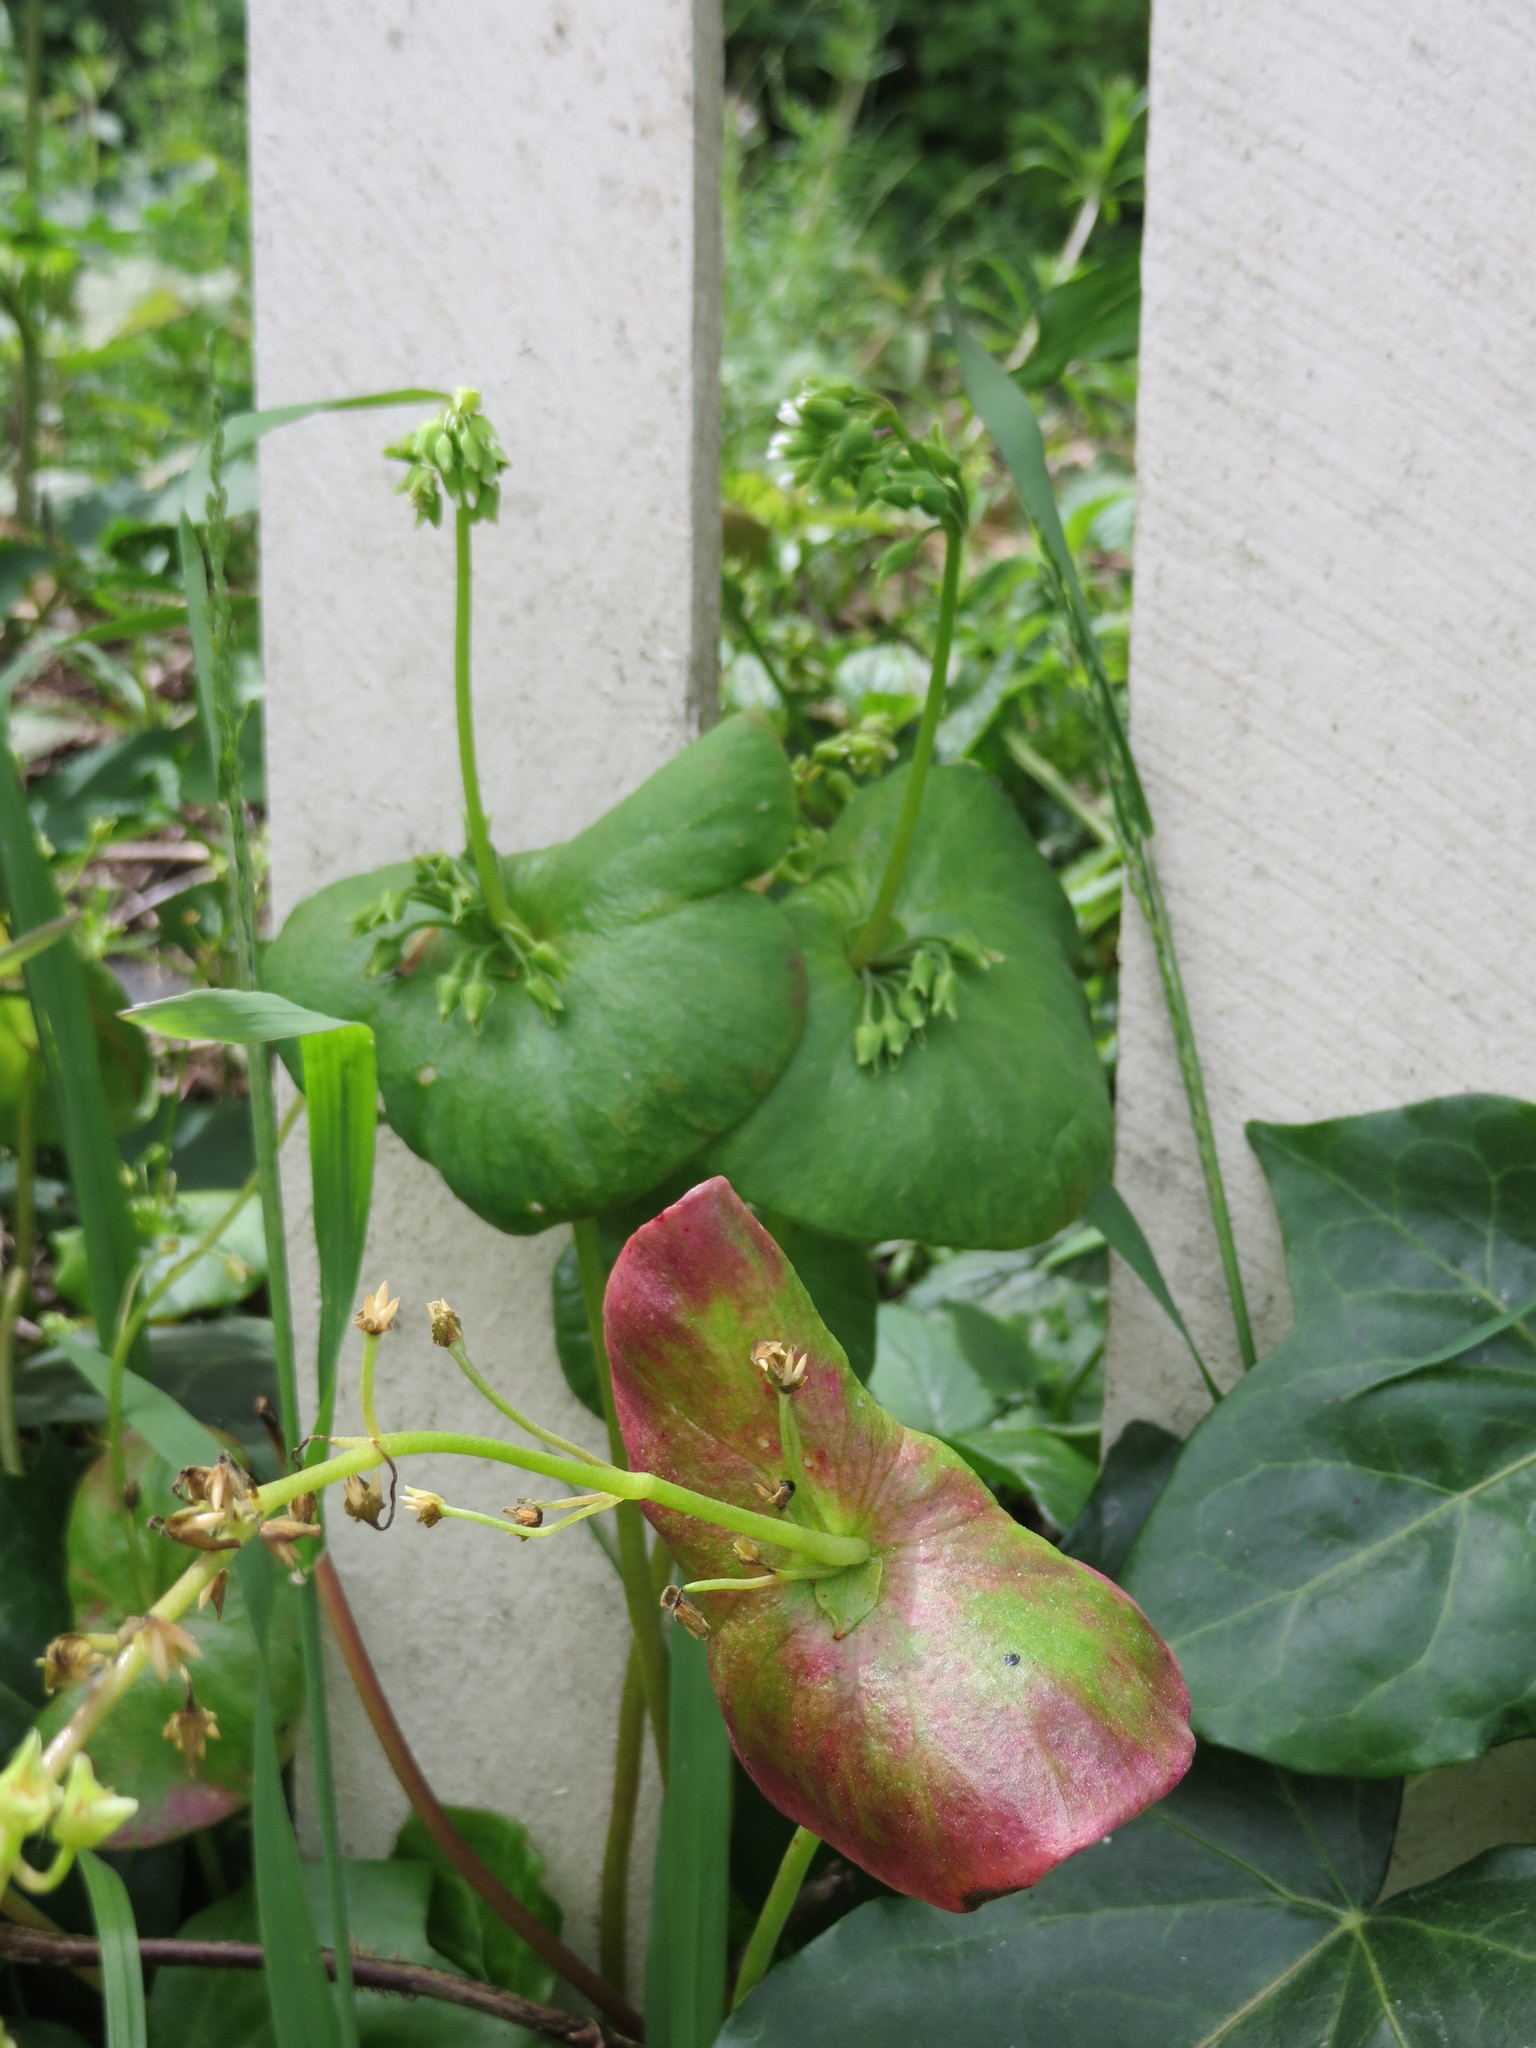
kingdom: Plantae
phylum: Tracheophyta
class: Magnoliopsida
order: Caryophyllales
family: Montiaceae
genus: Claytonia
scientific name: Claytonia perfoliata
